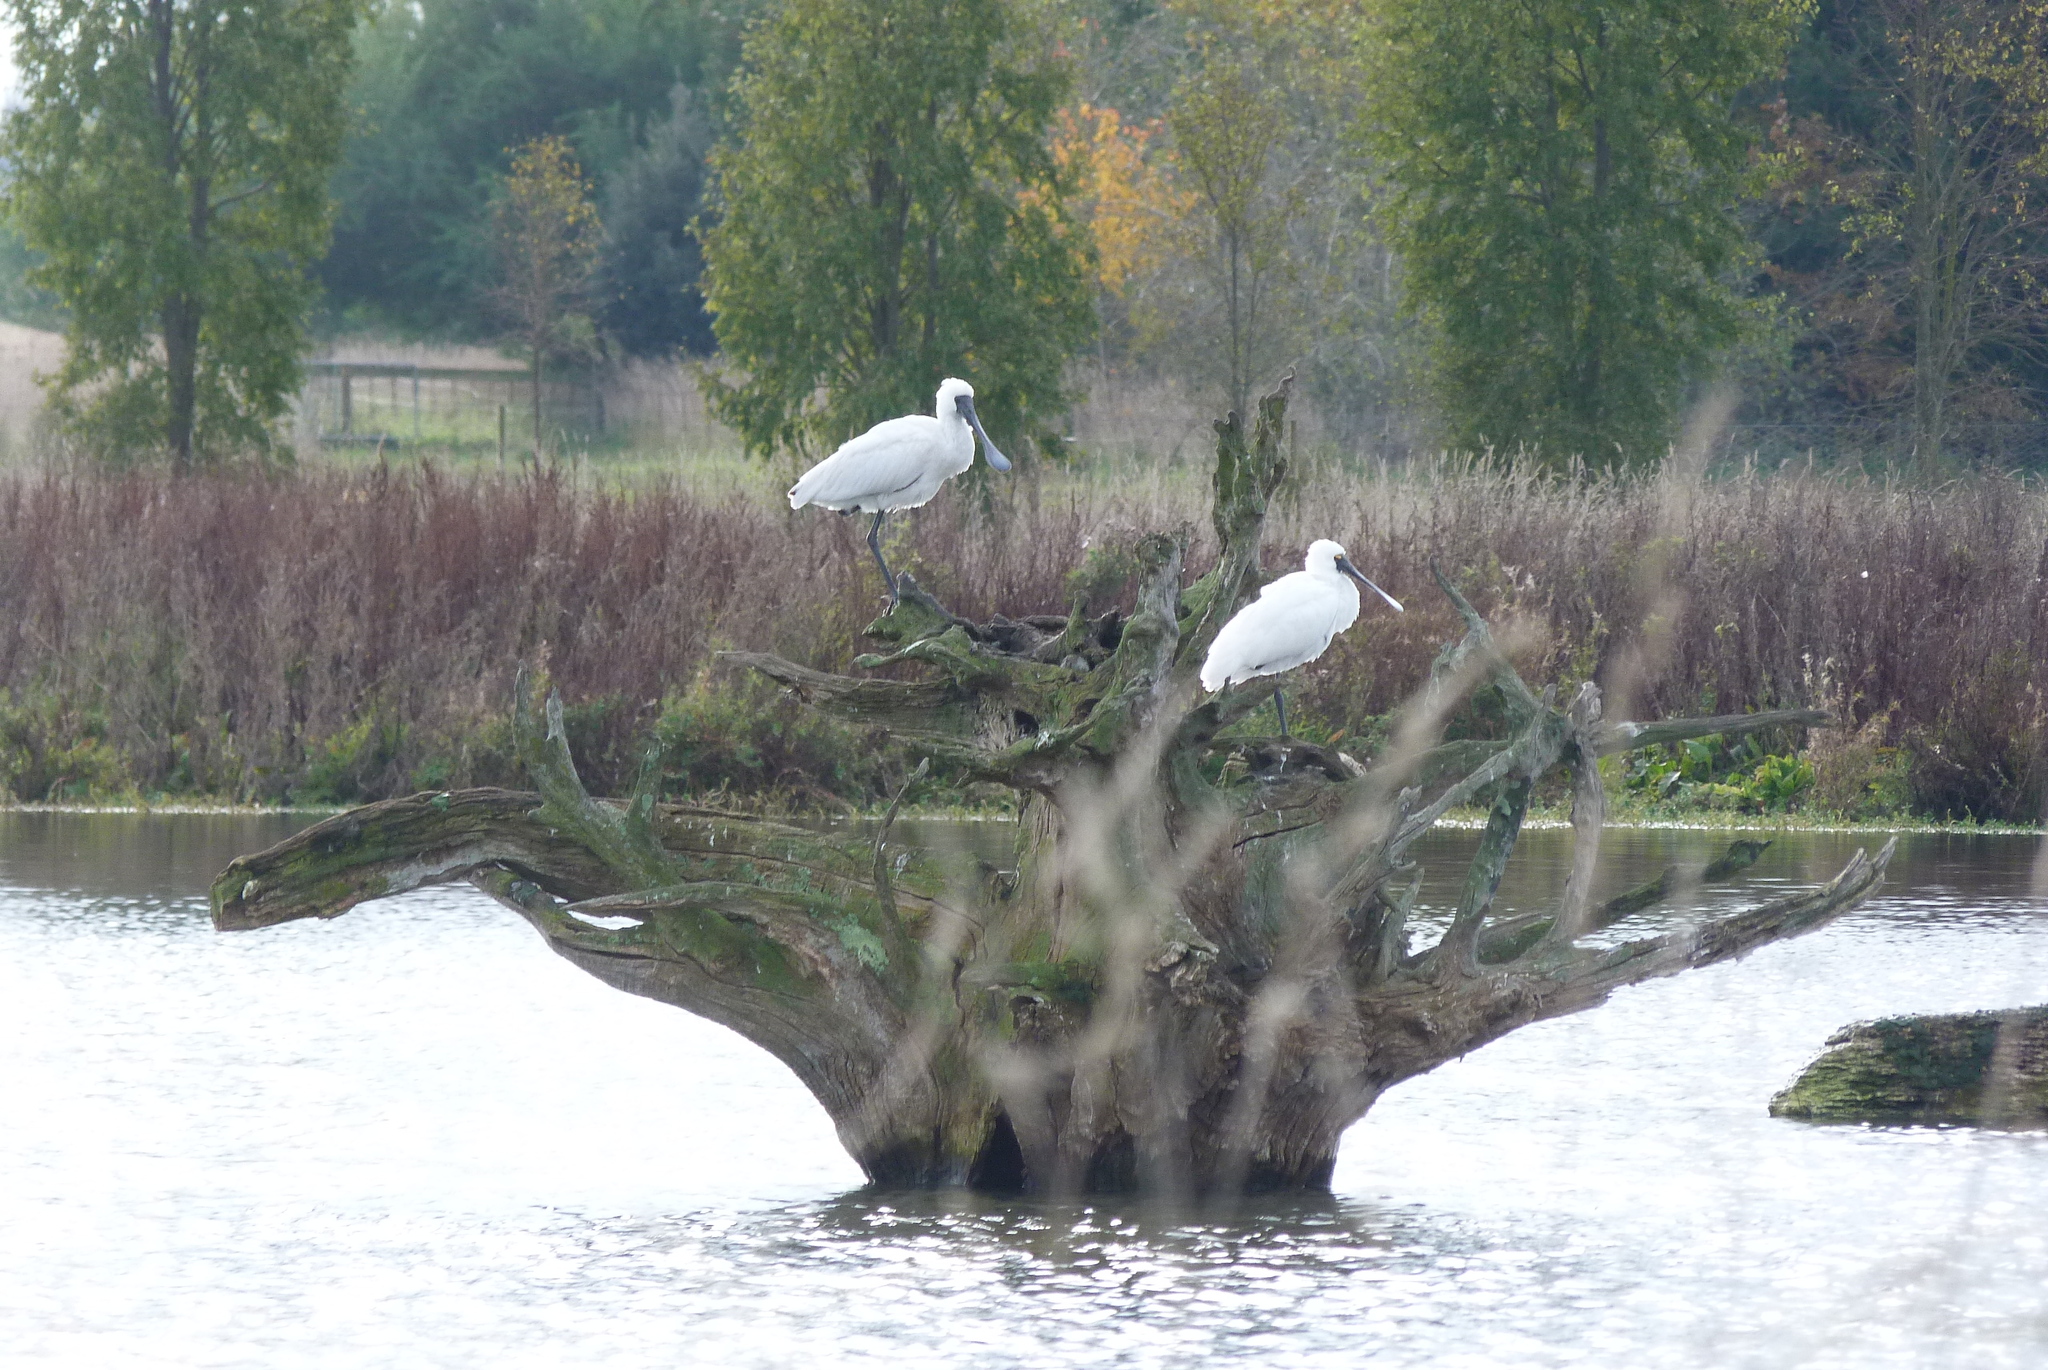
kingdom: Animalia
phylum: Chordata
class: Aves
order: Pelecaniformes
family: Threskiornithidae
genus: Platalea
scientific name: Platalea regia
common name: Royal spoonbill
